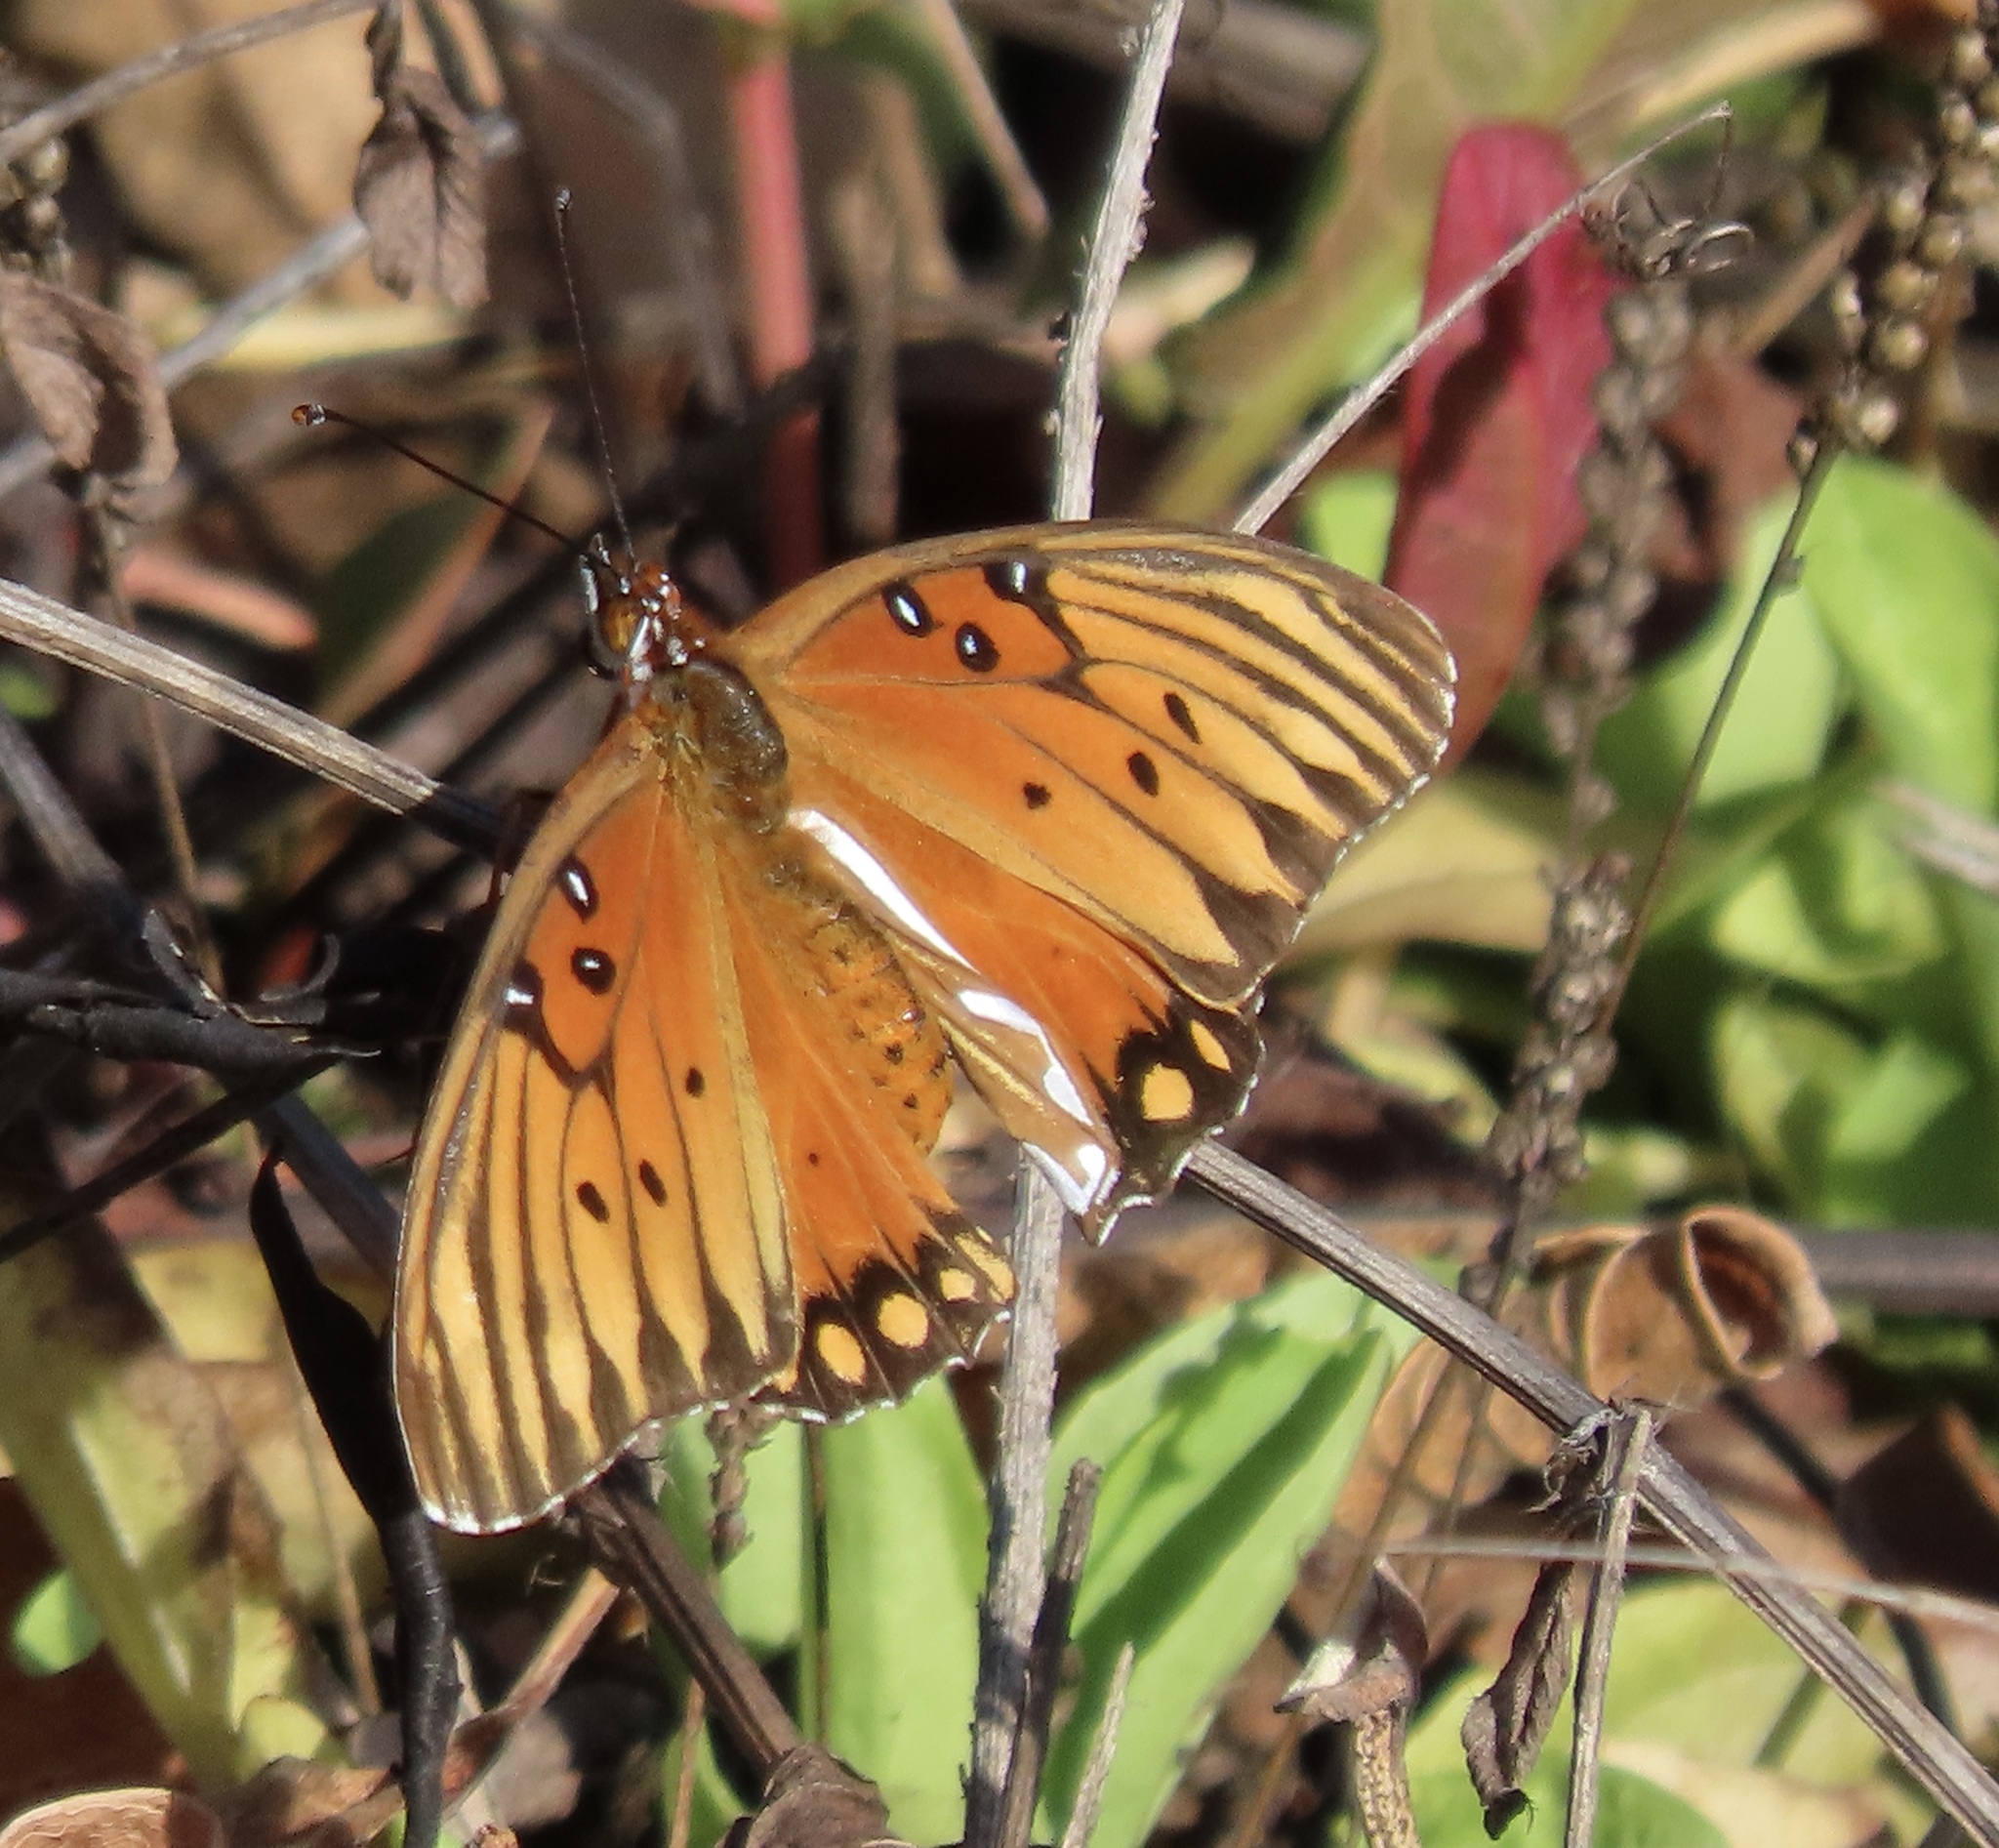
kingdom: Animalia
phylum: Arthropoda
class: Insecta
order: Lepidoptera
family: Nymphalidae
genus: Dione
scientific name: Dione vanillae
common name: Gulf fritillary
